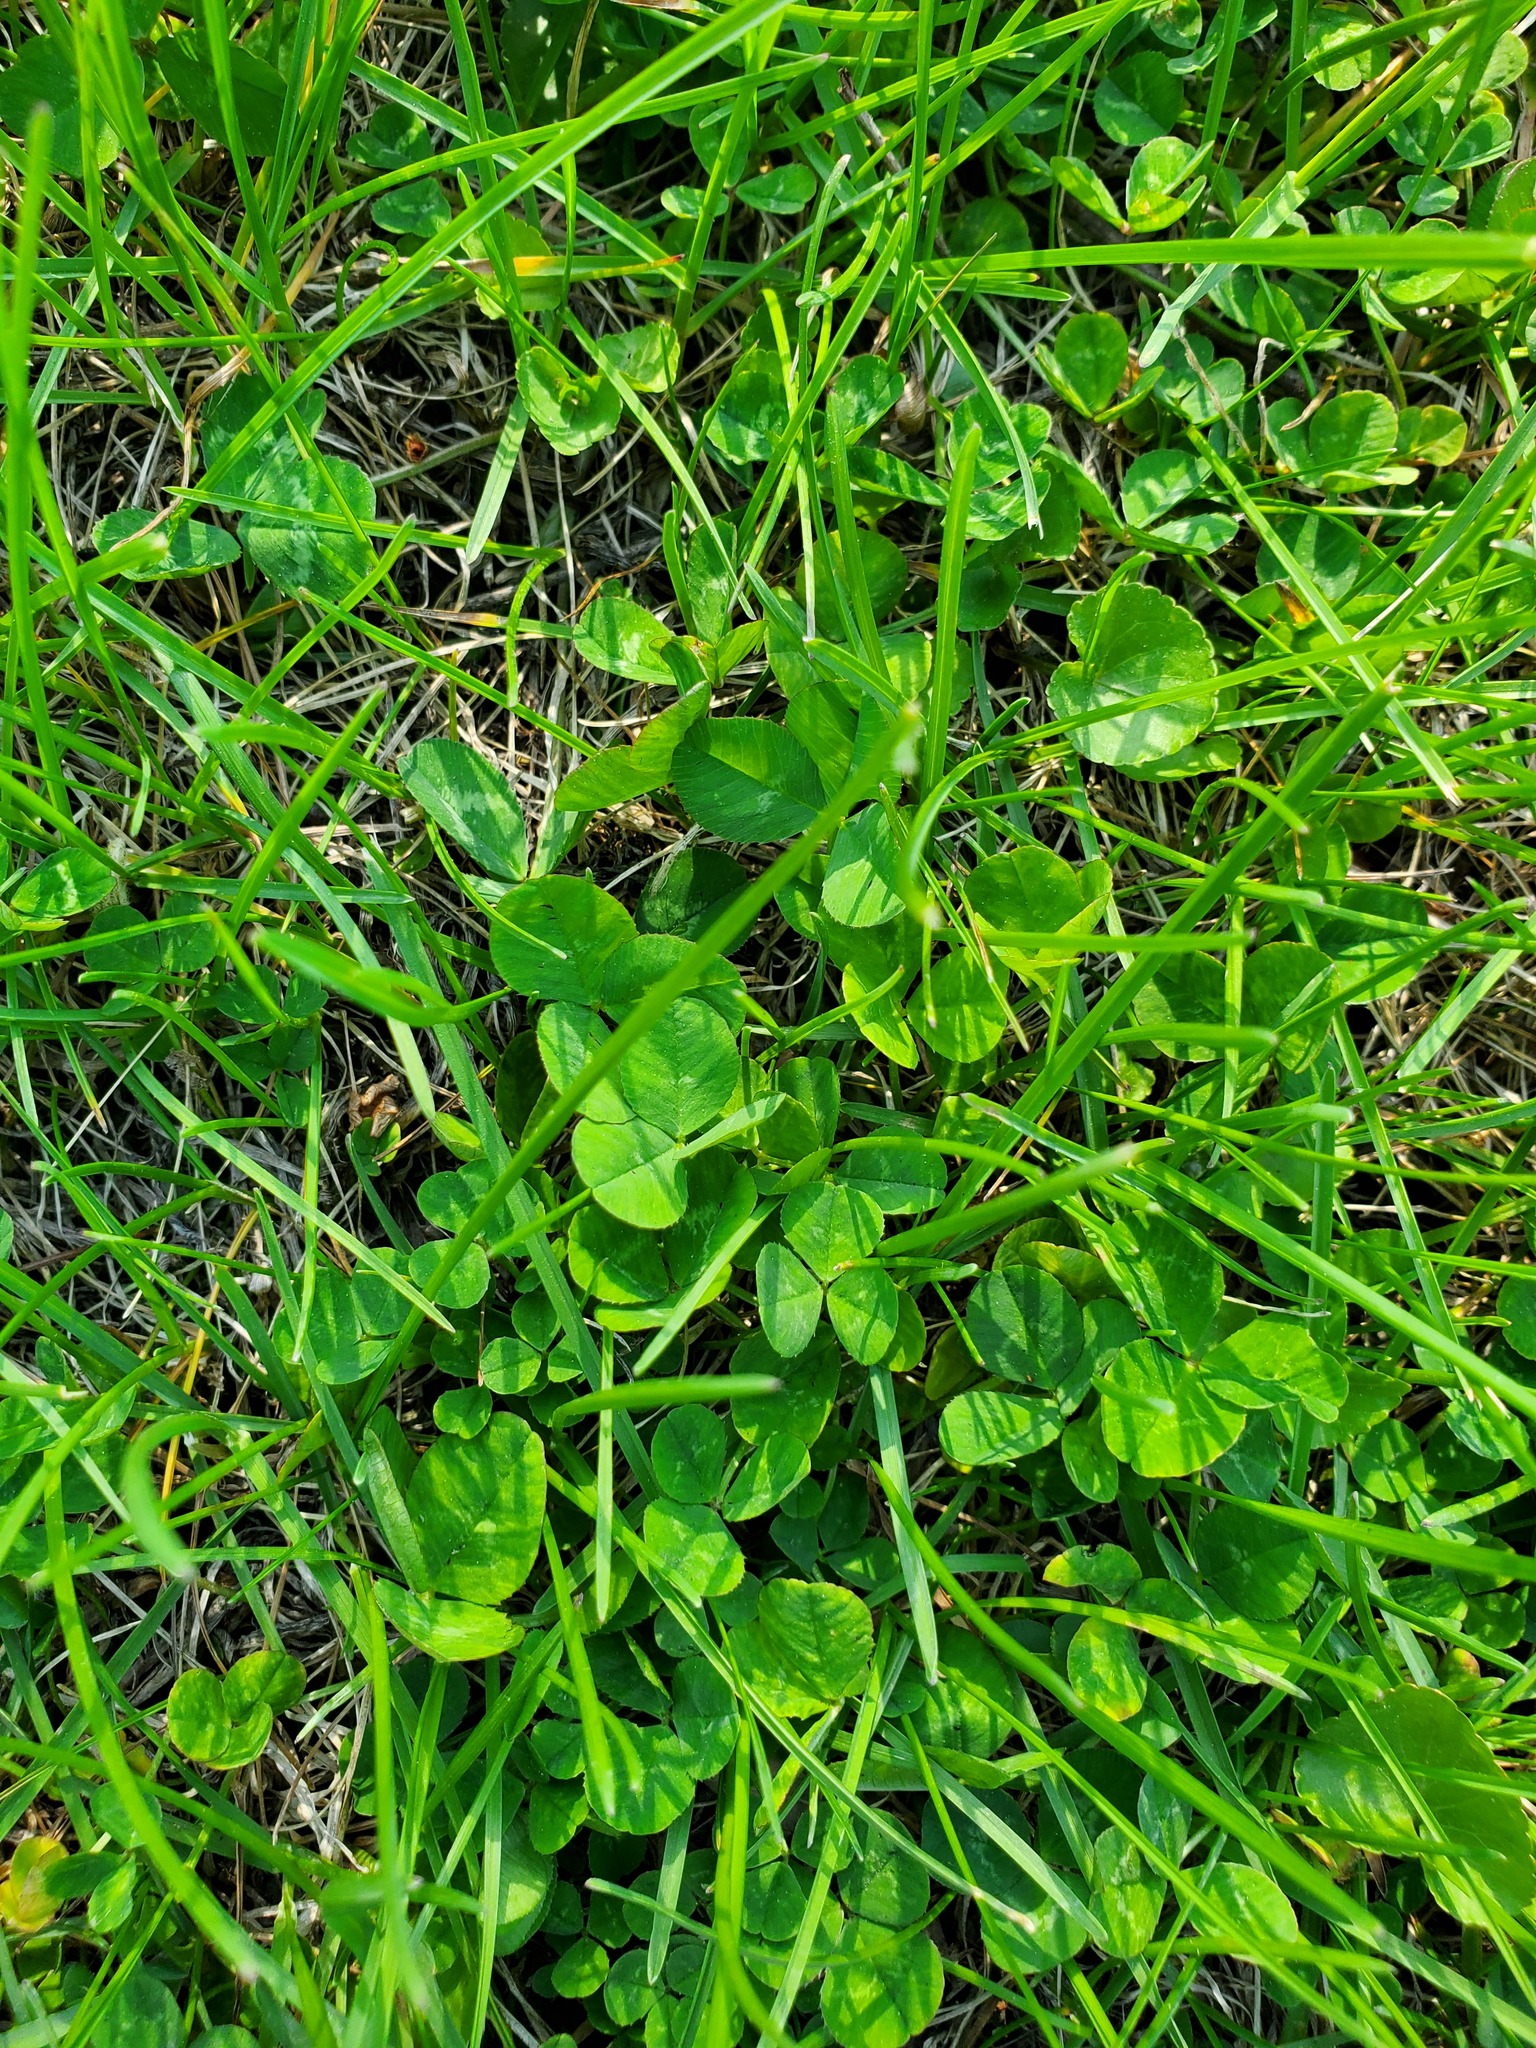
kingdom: Plantae
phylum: Tracheophyta
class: Magnoliopsida
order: Fabales
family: Fabaceae
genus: Trifolium
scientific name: Trifolium repens
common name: White clover
